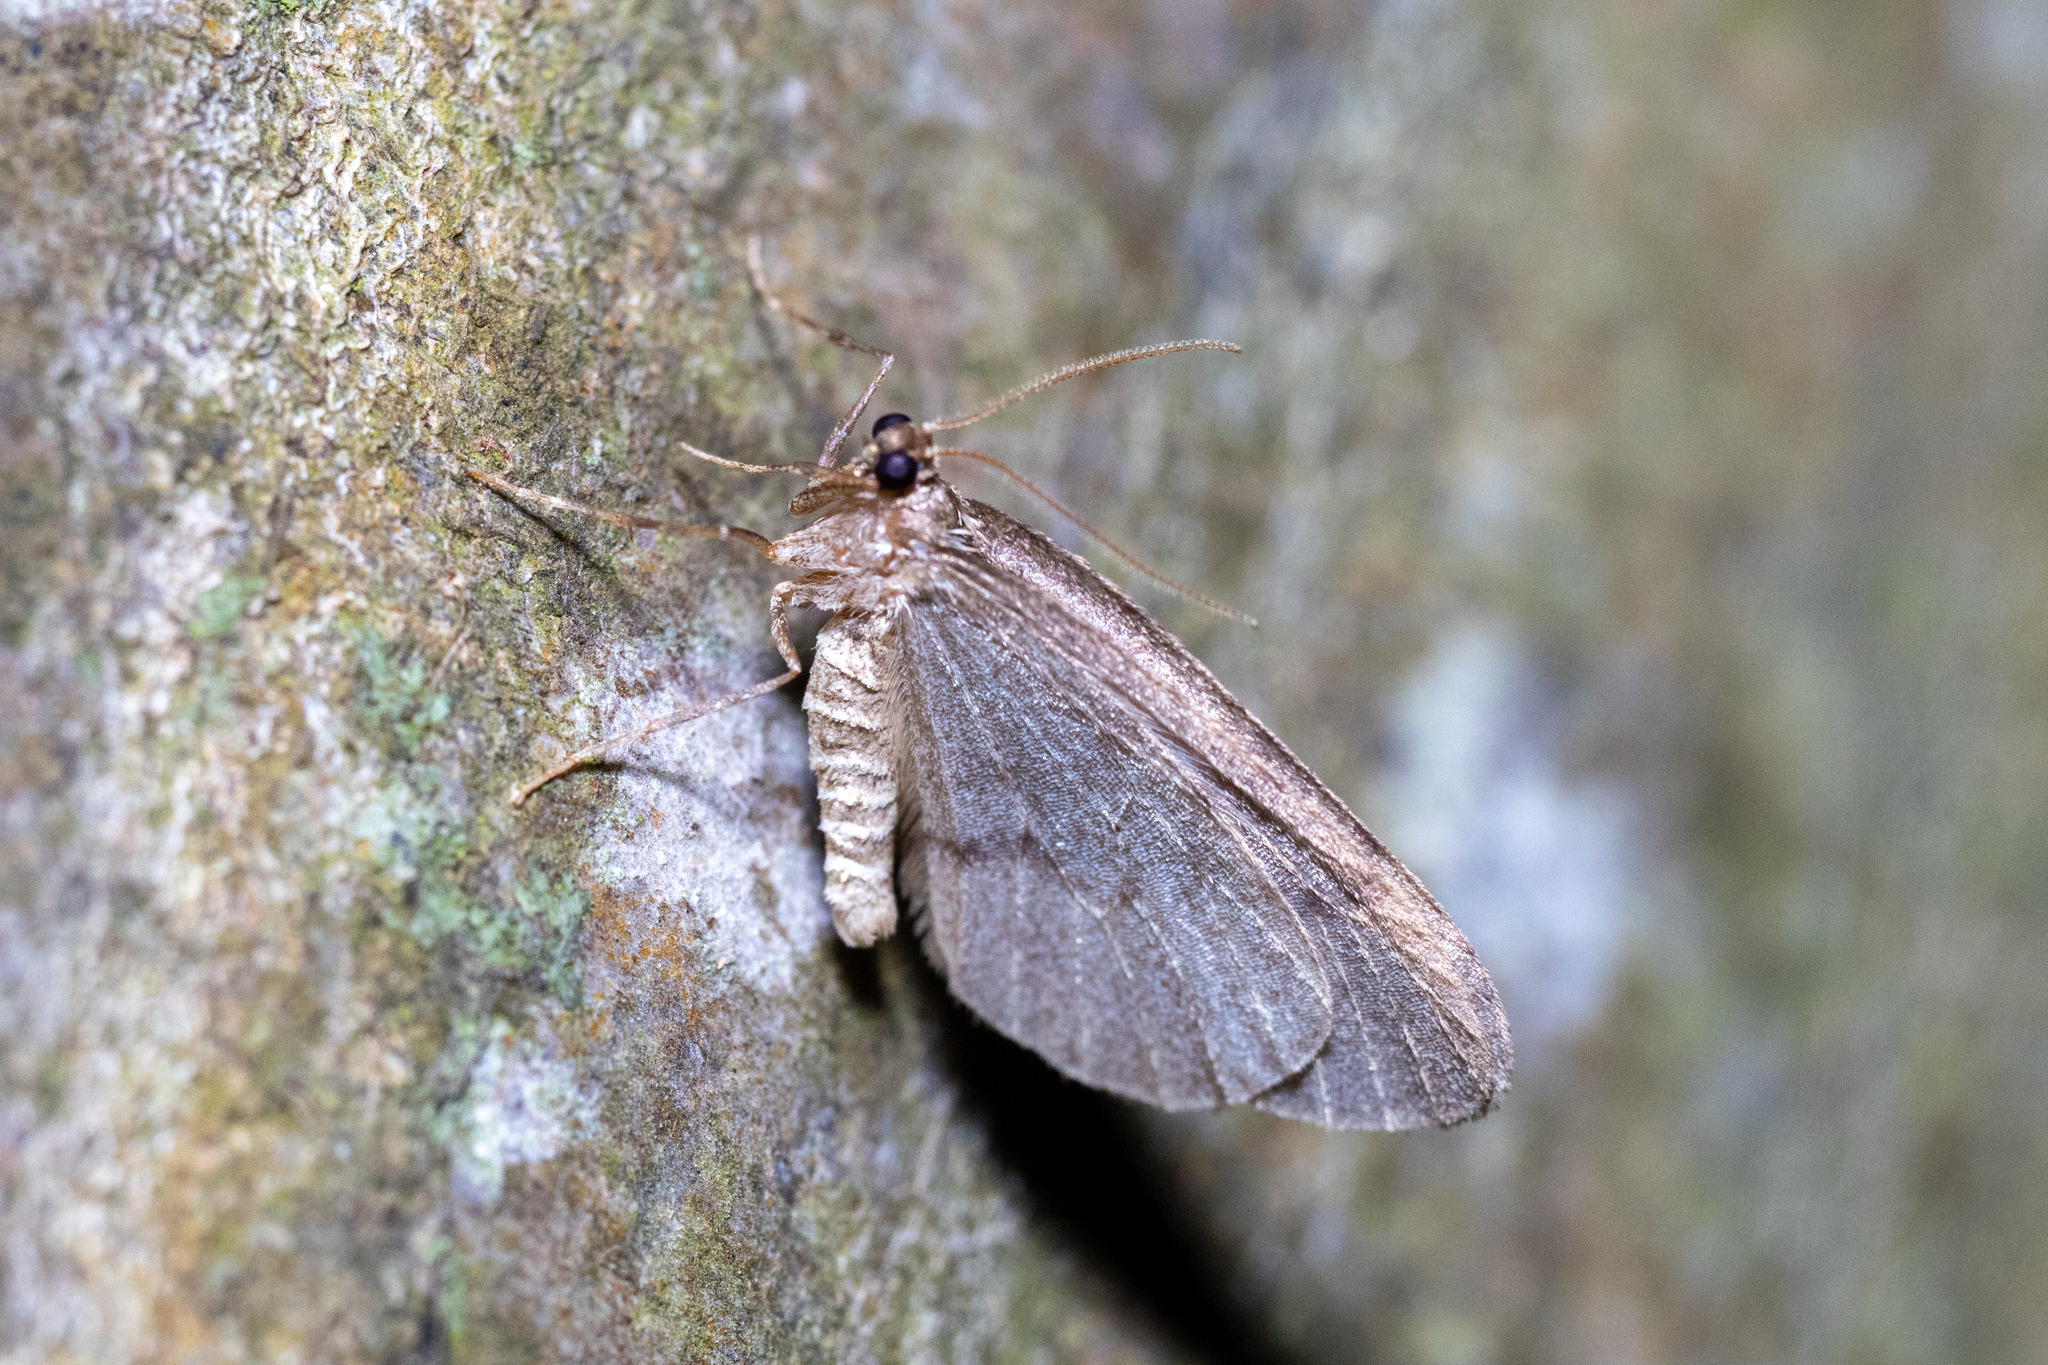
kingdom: Animalia
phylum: Arthropoda
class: Insecta
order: Lepidoptera
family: Geometridae
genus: Operophtera
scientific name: Operophtera brumata
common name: Winter moth
